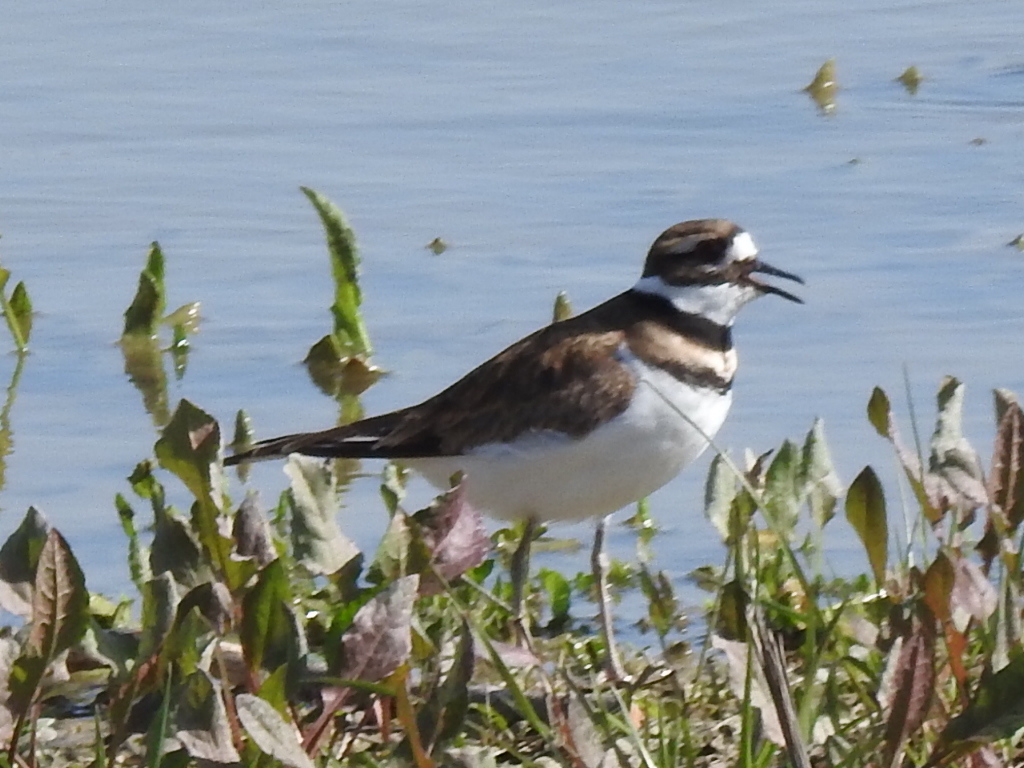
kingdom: Animalia
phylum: Chordata
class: Aves
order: Charadriiformes
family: Charadriidae
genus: Charadrius
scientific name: Charadrius vociferus
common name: Killdeer
